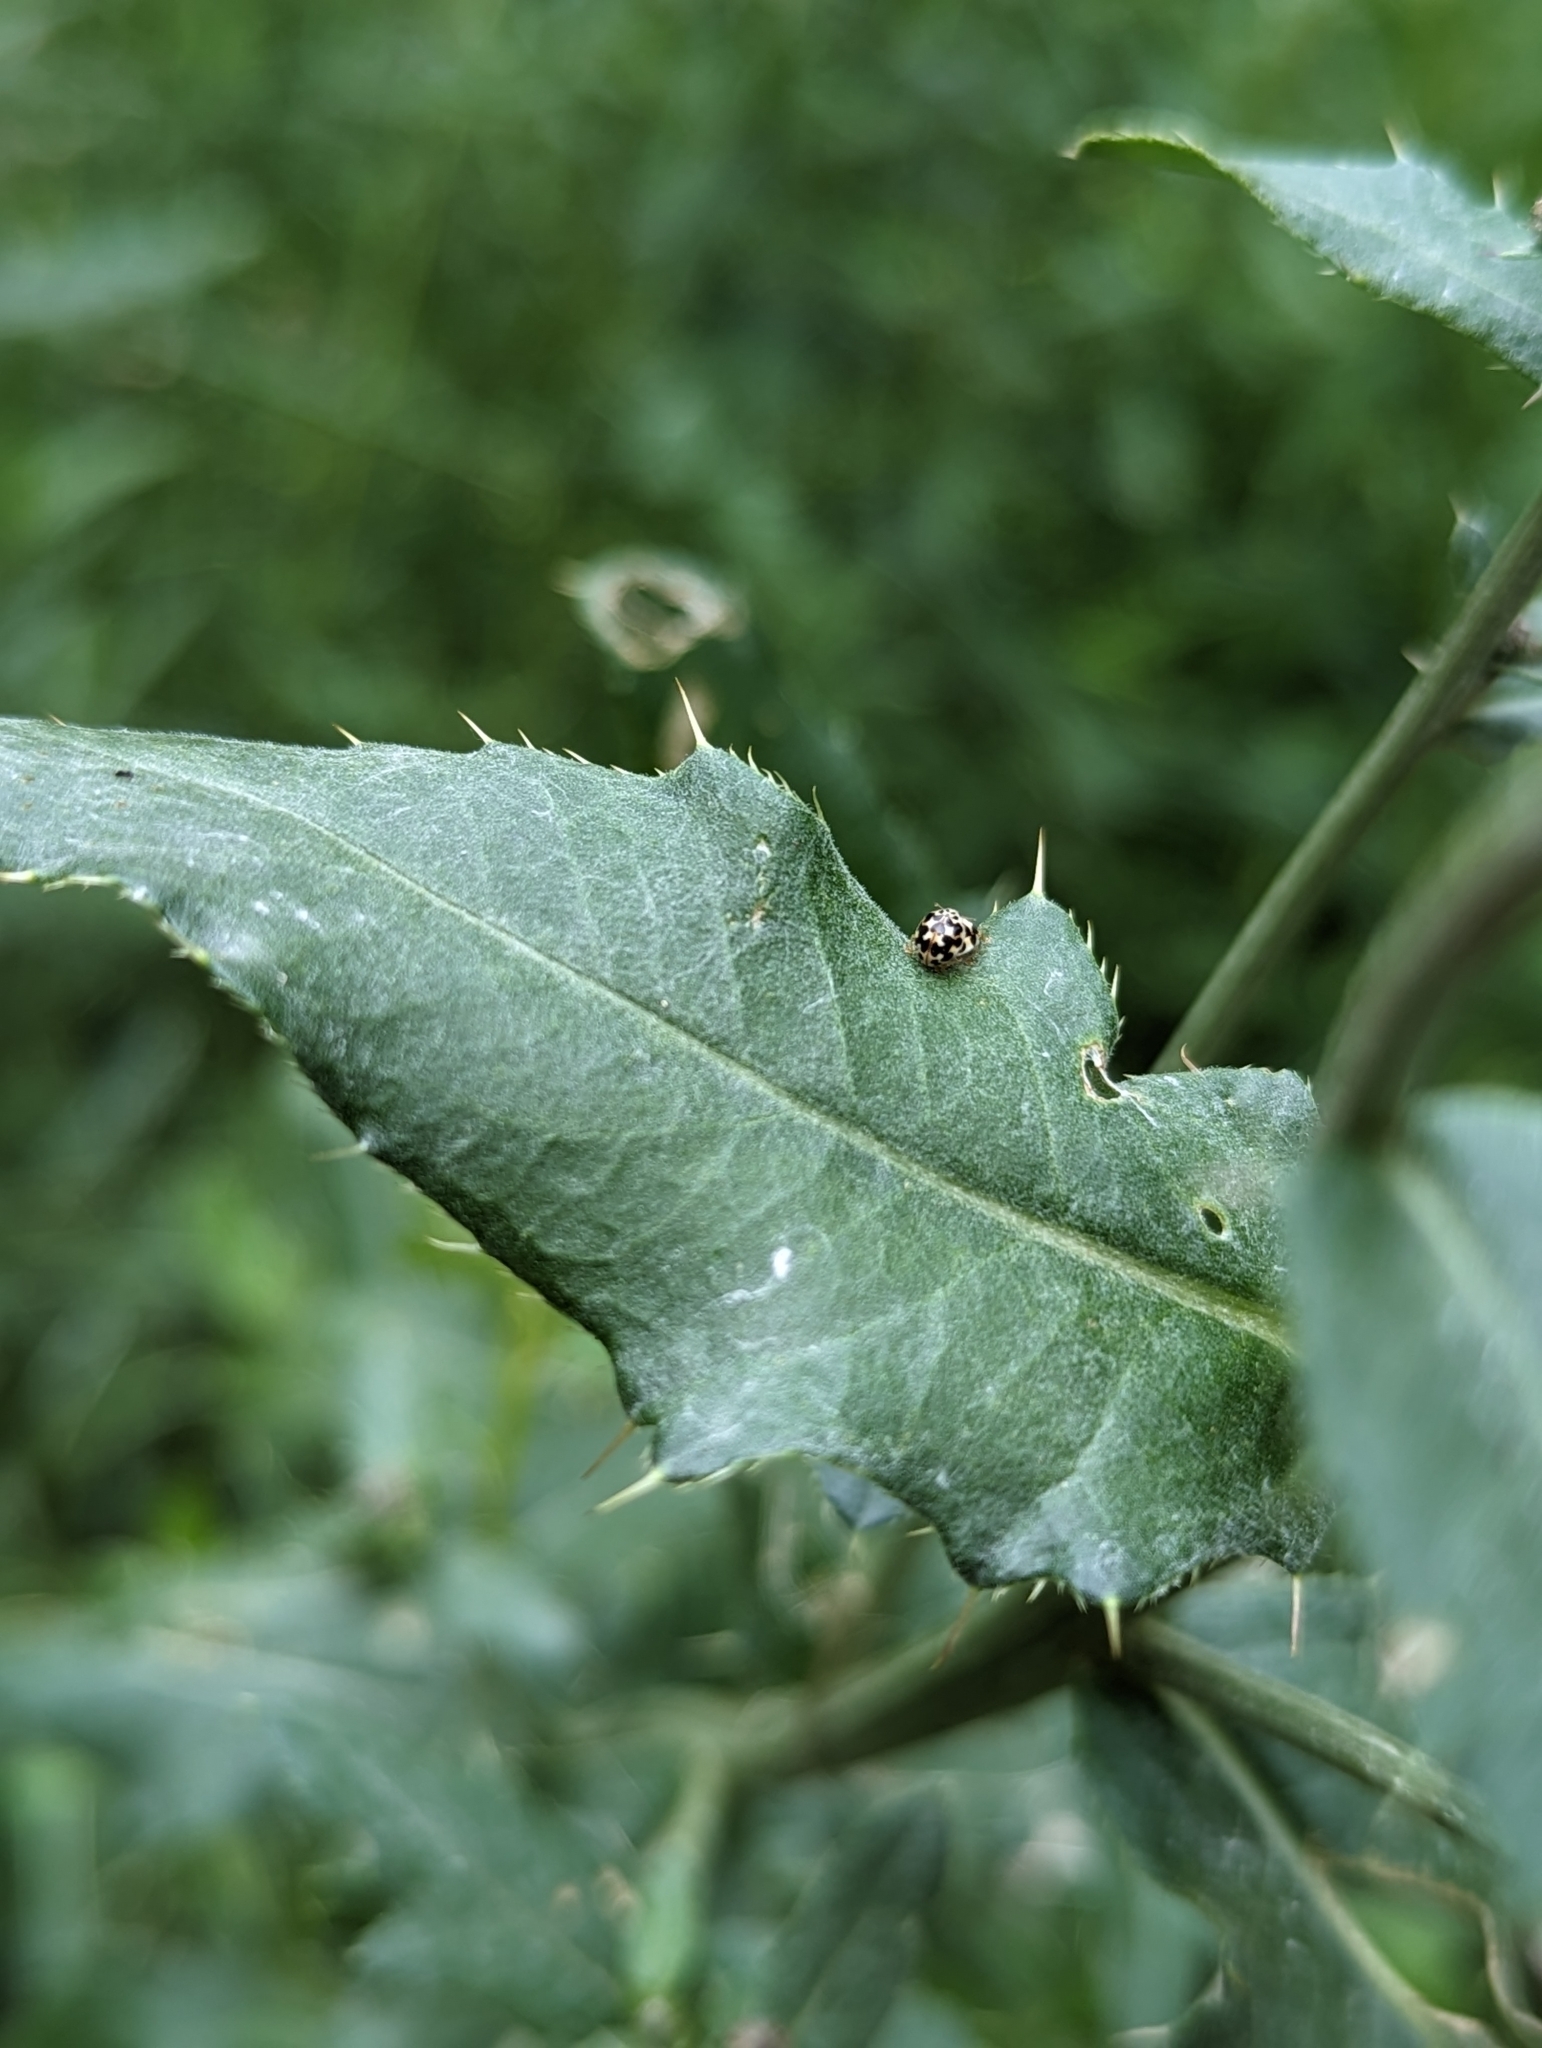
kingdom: Animalia
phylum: Arthropoda
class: Insecta
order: Coleoptera
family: Coccinellidae
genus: Psyllobora
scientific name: Psyllobora vigintimaculata
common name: Ladybird beetle
